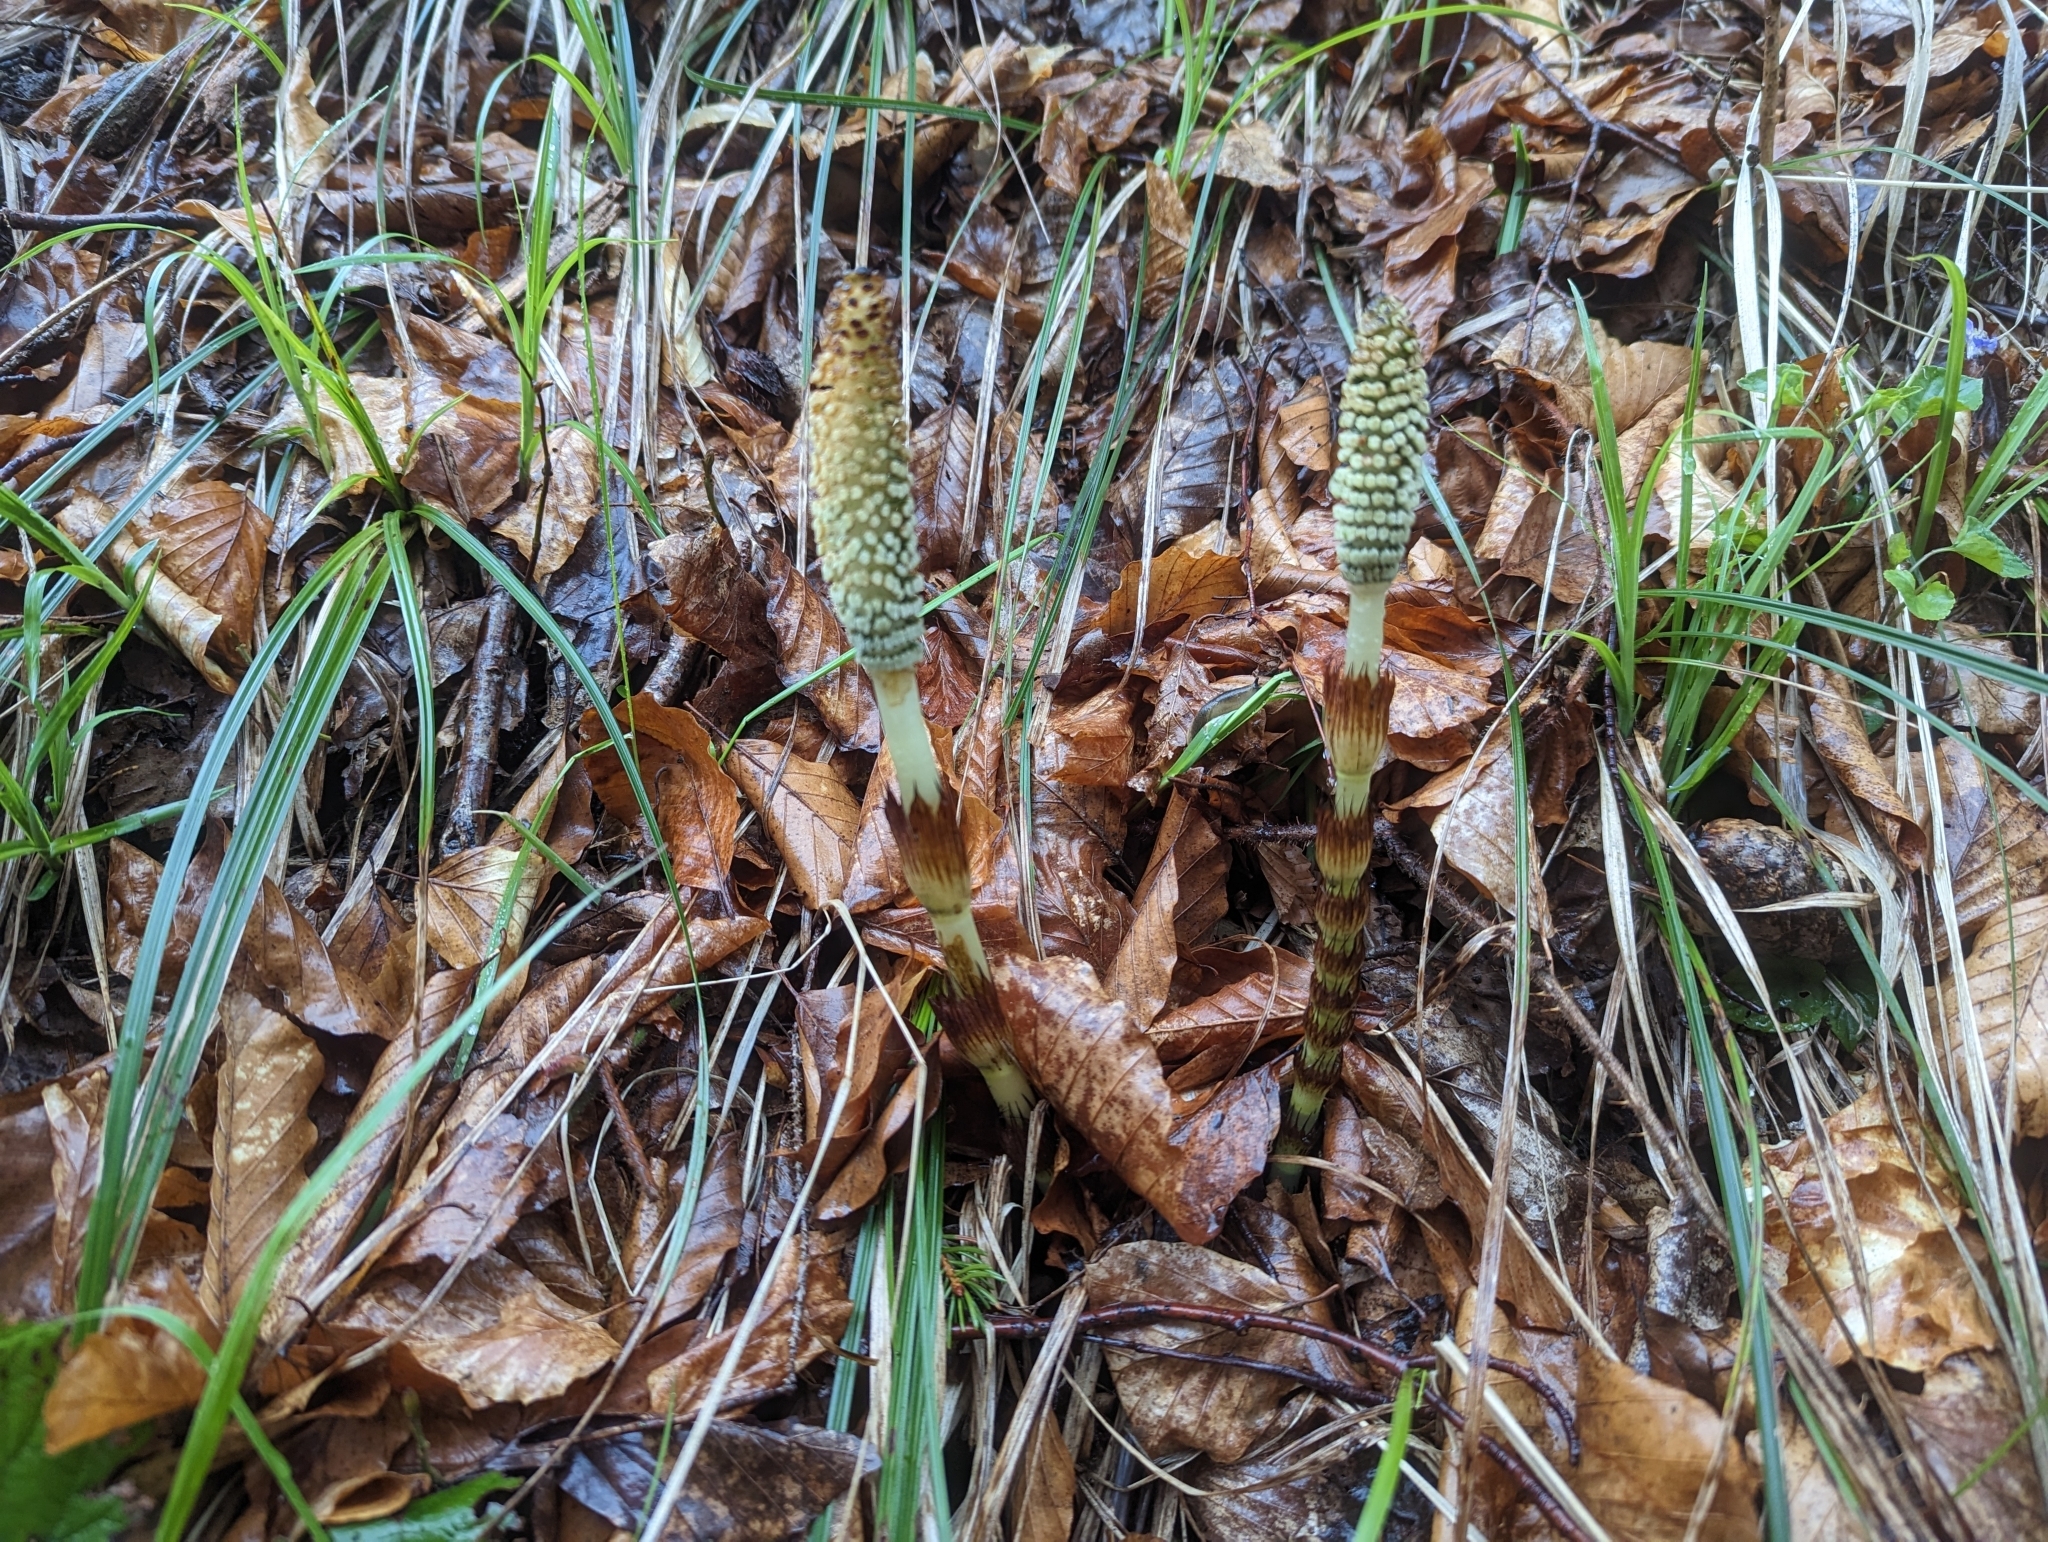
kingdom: Plantae
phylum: Tracheophyta
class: Polypodiopsida
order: Equisetales
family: Equisetaceae
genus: Equisetum
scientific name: Equisetum telmateia
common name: Great horsetail
